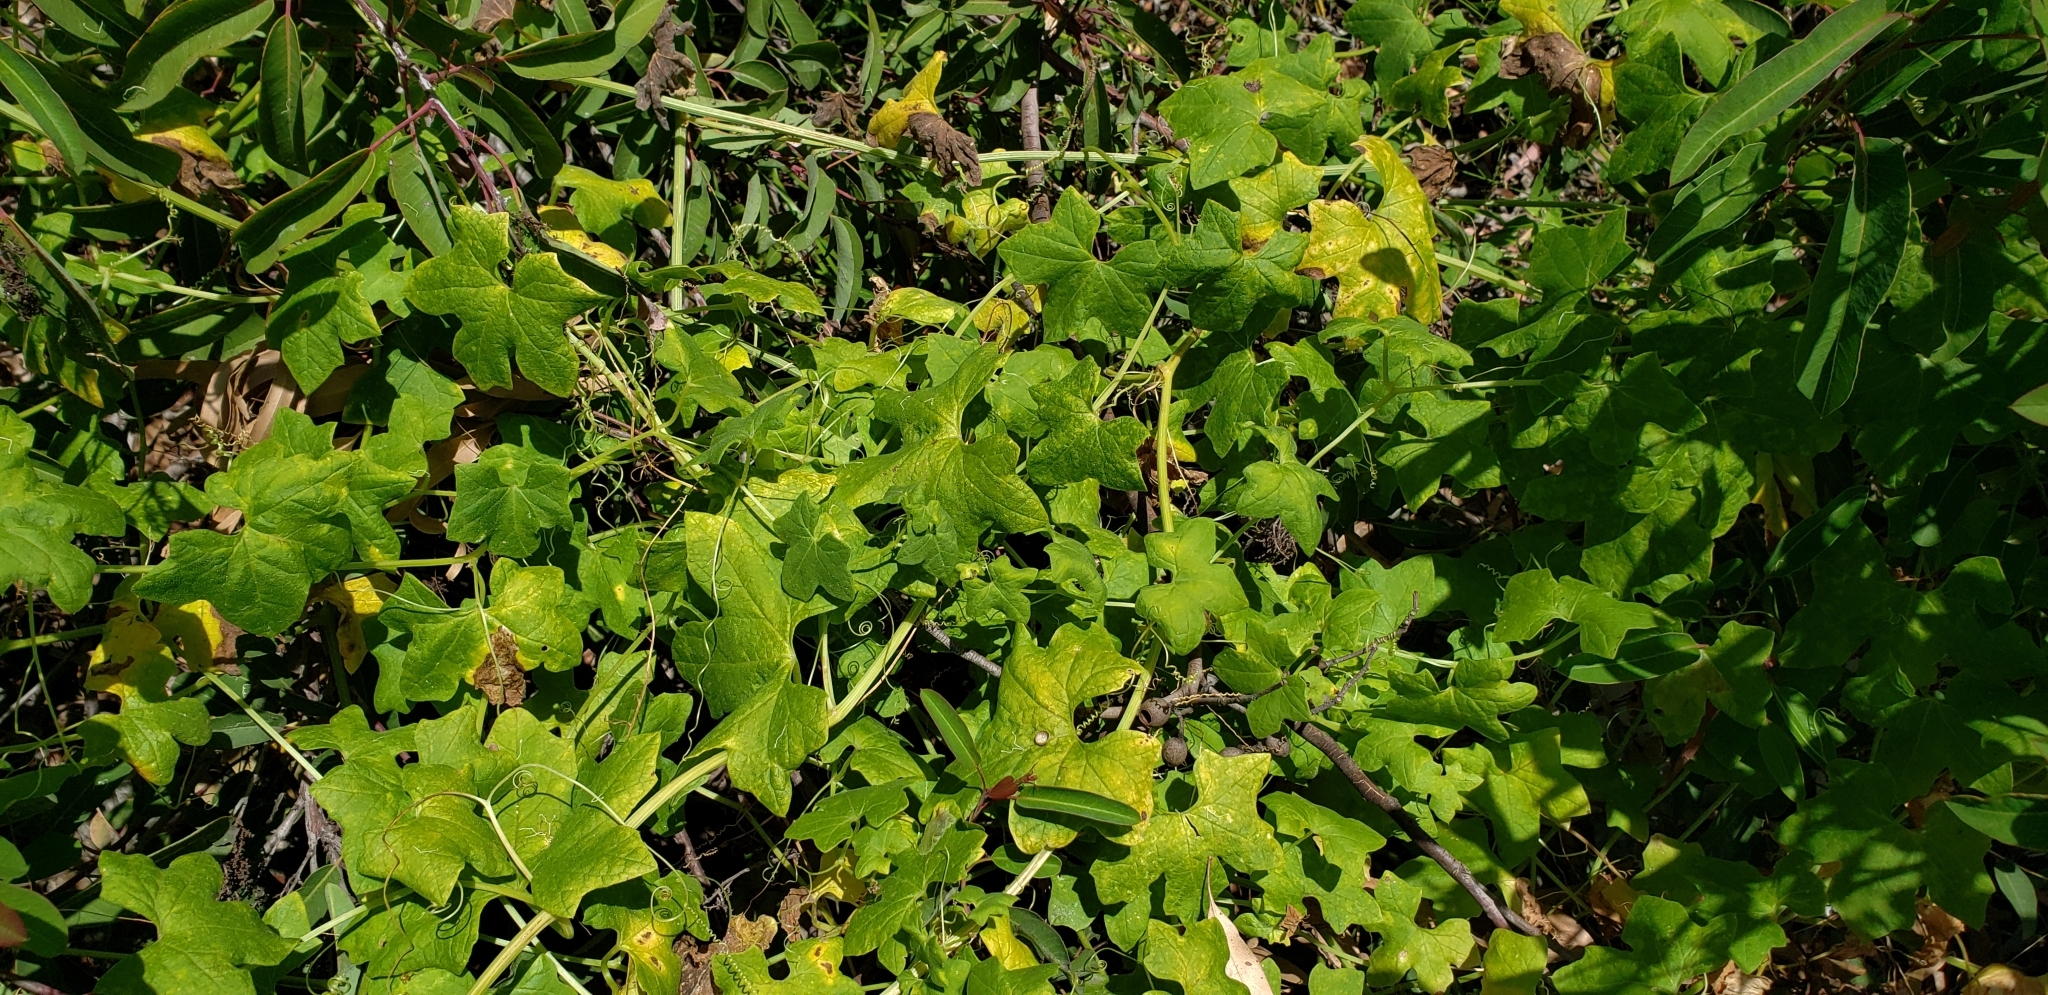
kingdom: Plantae
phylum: Tracheophyta
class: Magnoliopsida
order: Cucurbitales
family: Cucurbitaceae
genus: Marah
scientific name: Marah macrocarpa
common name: Cucamonga manroot
